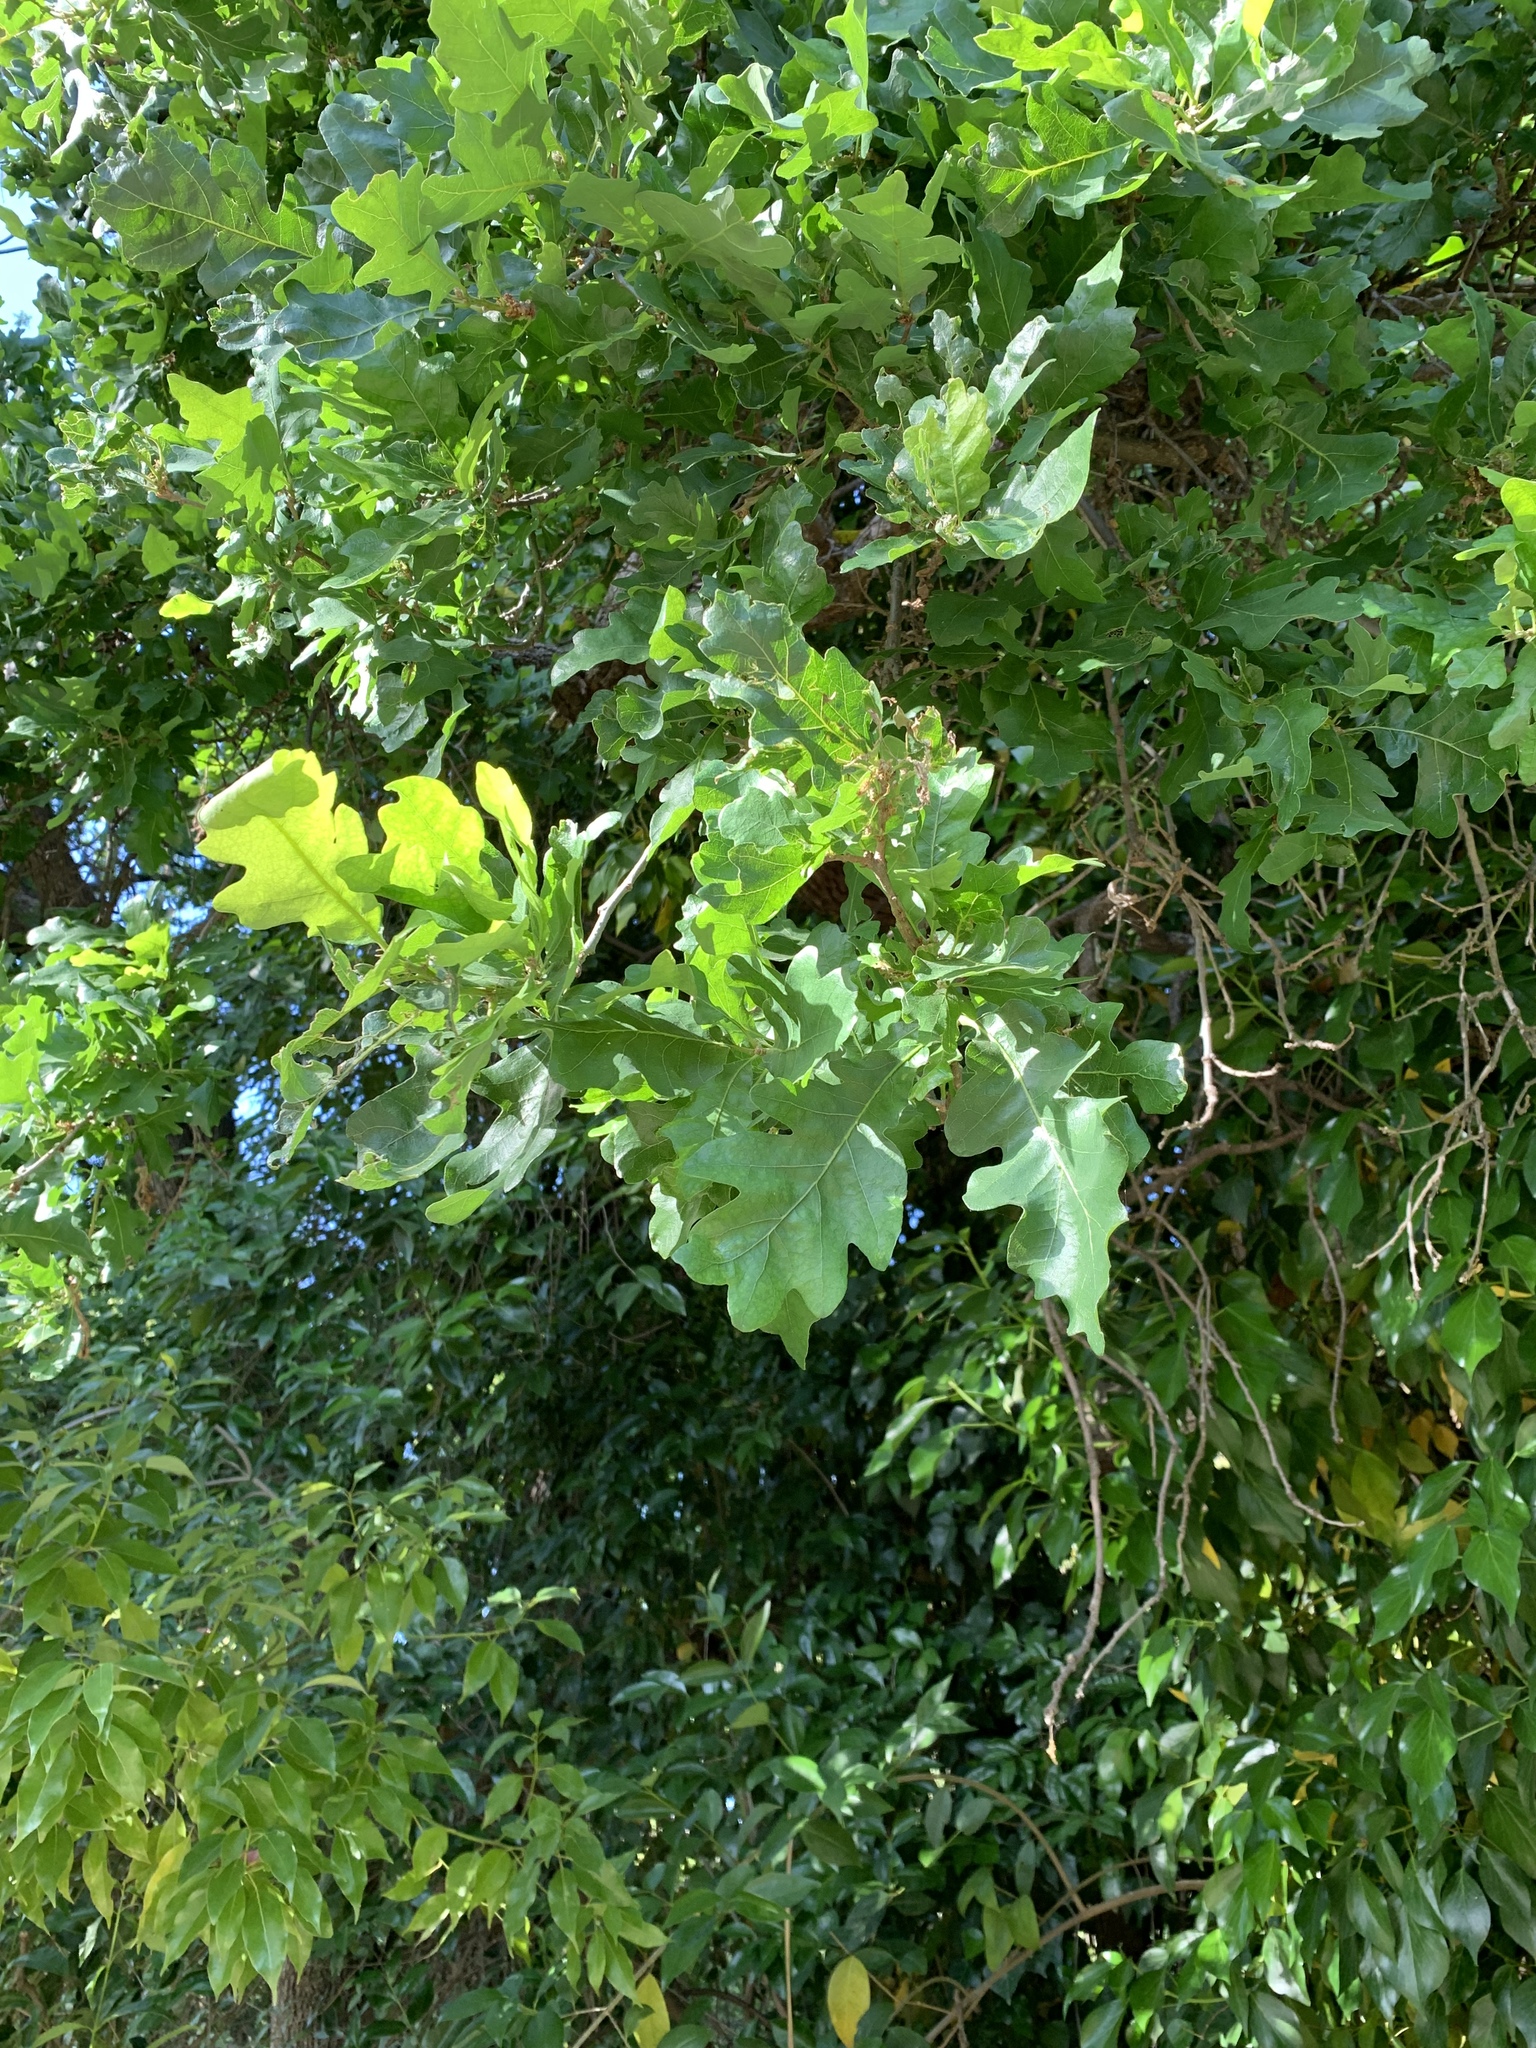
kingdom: Plantae
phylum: Tracheophyta
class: Magnoliopsida
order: Fagales
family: Fagaceae
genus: Quercus
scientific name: Quercus lobata
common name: Valley oak
